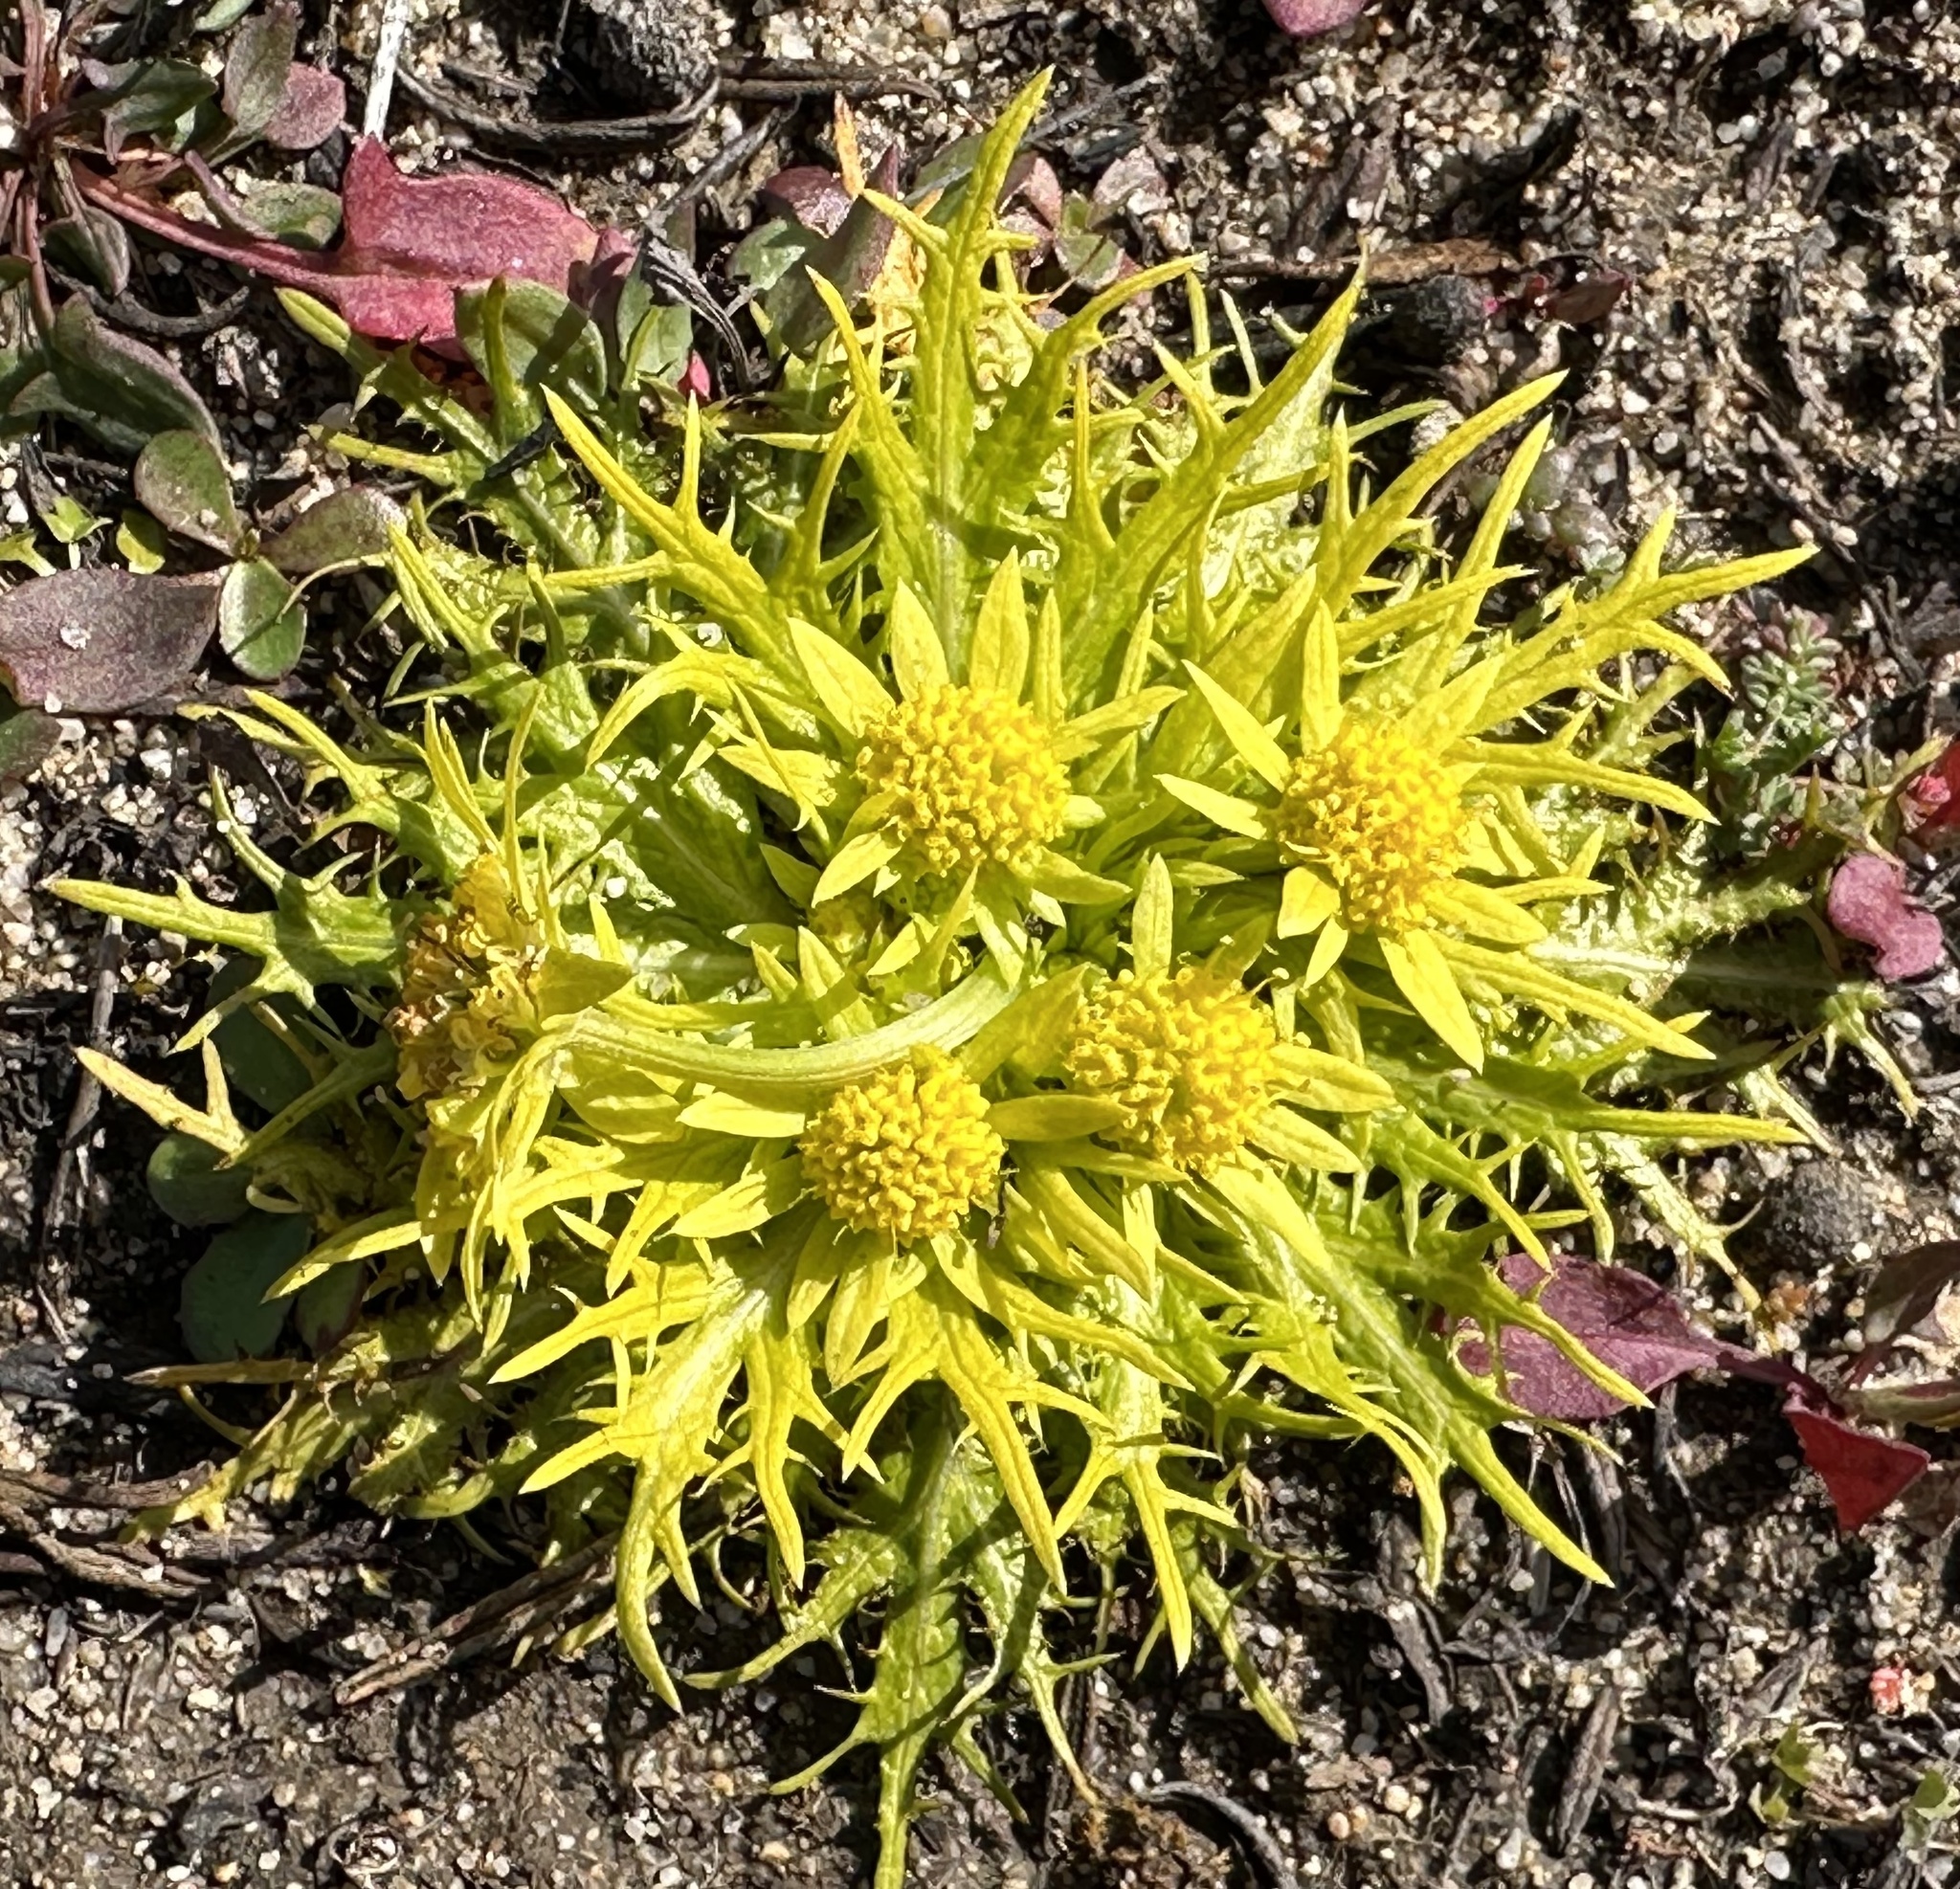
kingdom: Plantae
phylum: Tracheophyta
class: Magnoliopsida
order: Apiales
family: Apiaceae
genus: Sanicula
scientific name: Sanicula arctopoides
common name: Footsteps-of-spring
